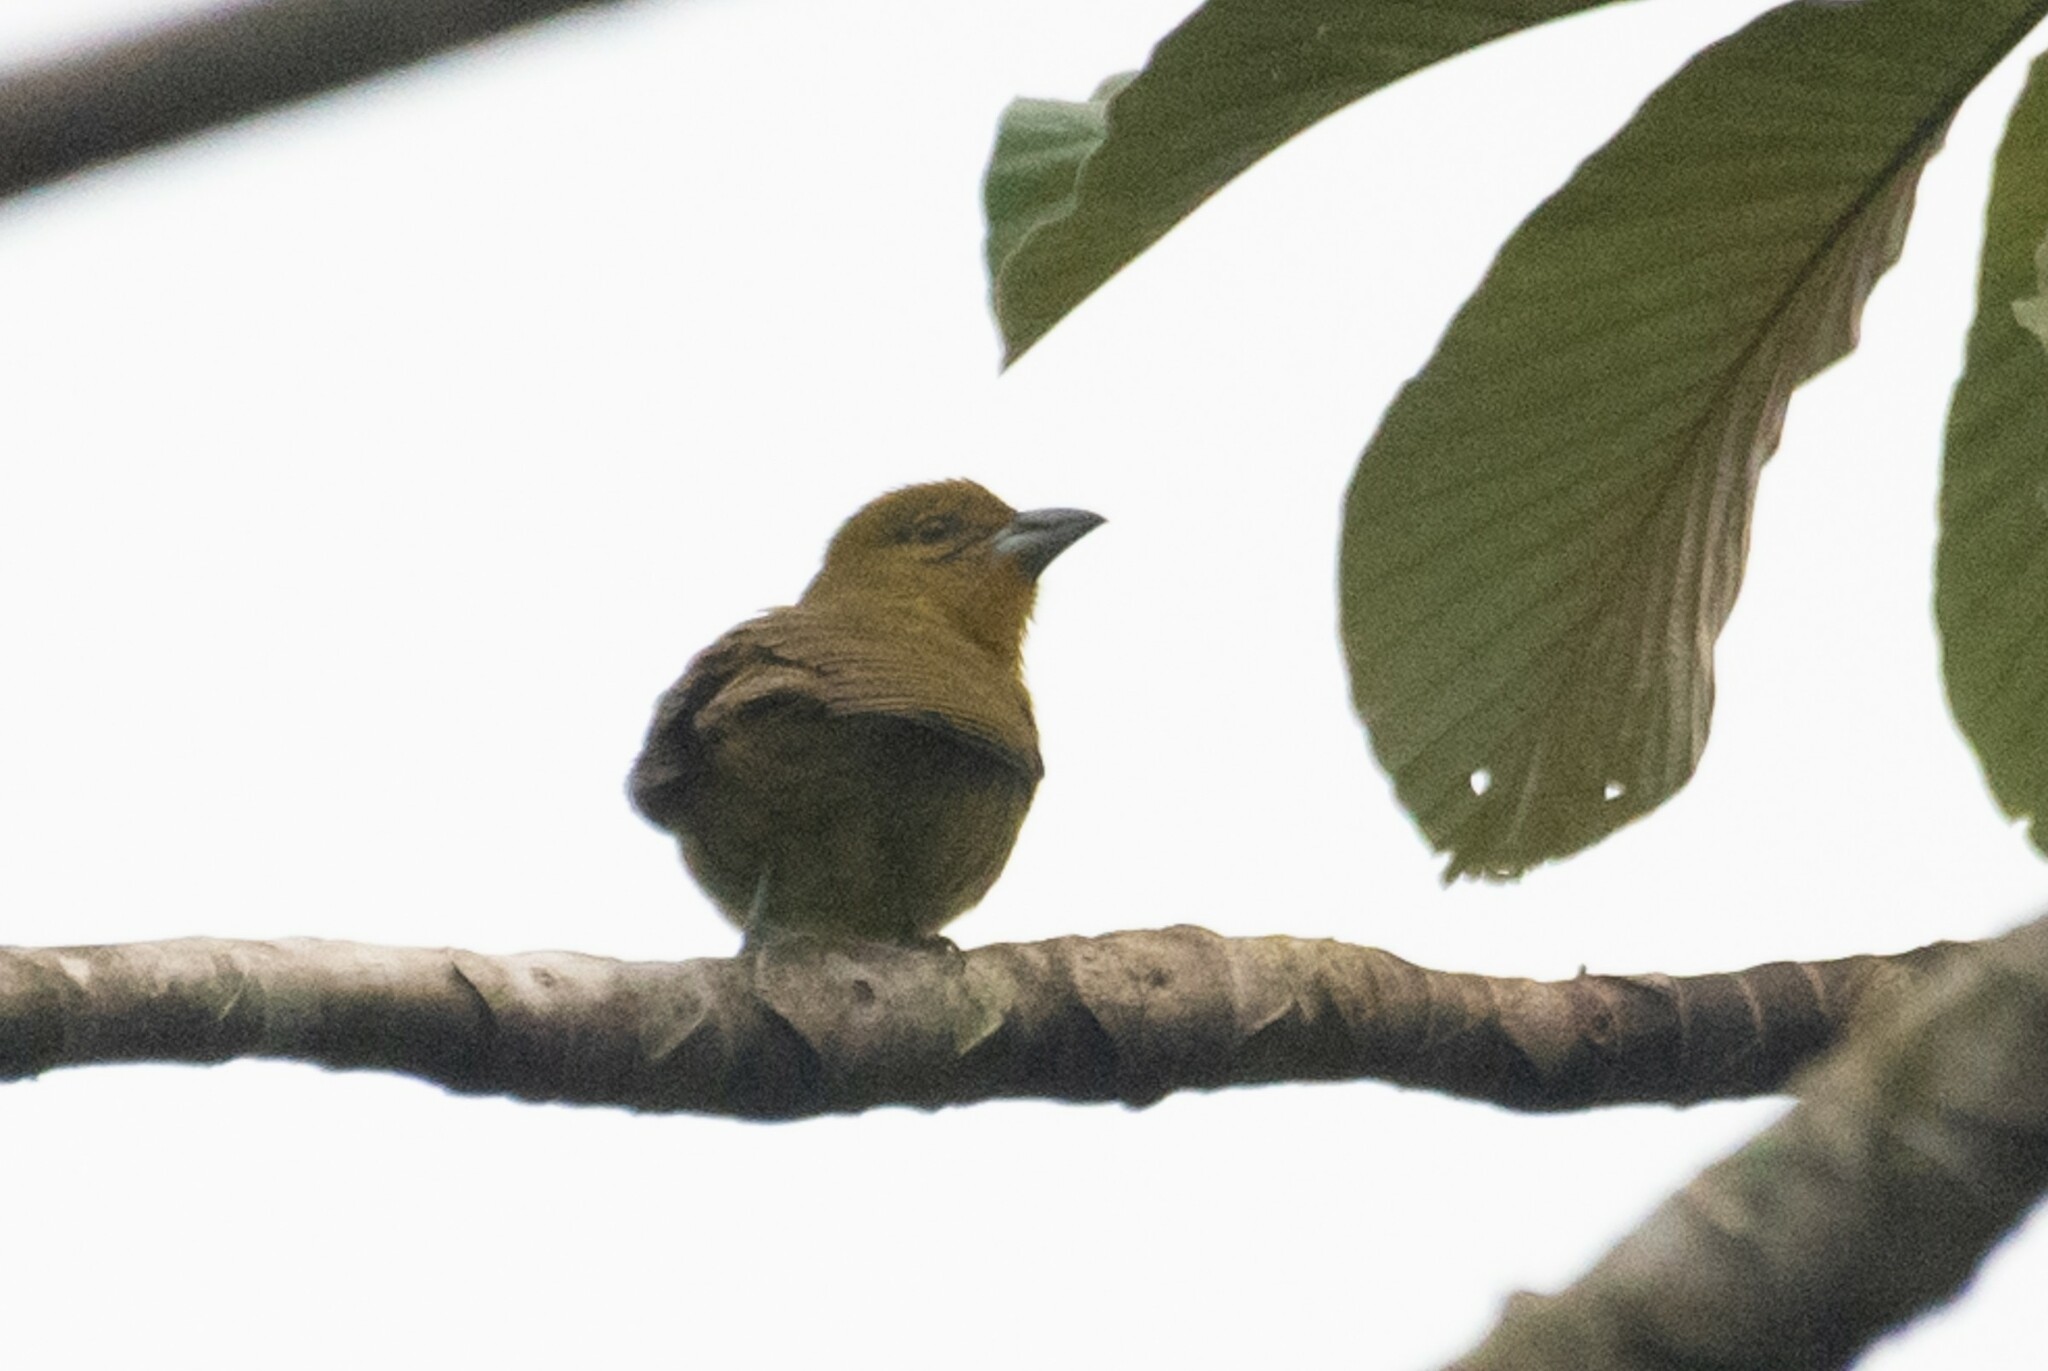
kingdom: Animalia
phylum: Chordata
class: Aves
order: Passeriformes
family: Cardinalidae
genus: Chlorothraupis
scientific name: Chlorothraupis carmioli
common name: Carmiol's tanager
